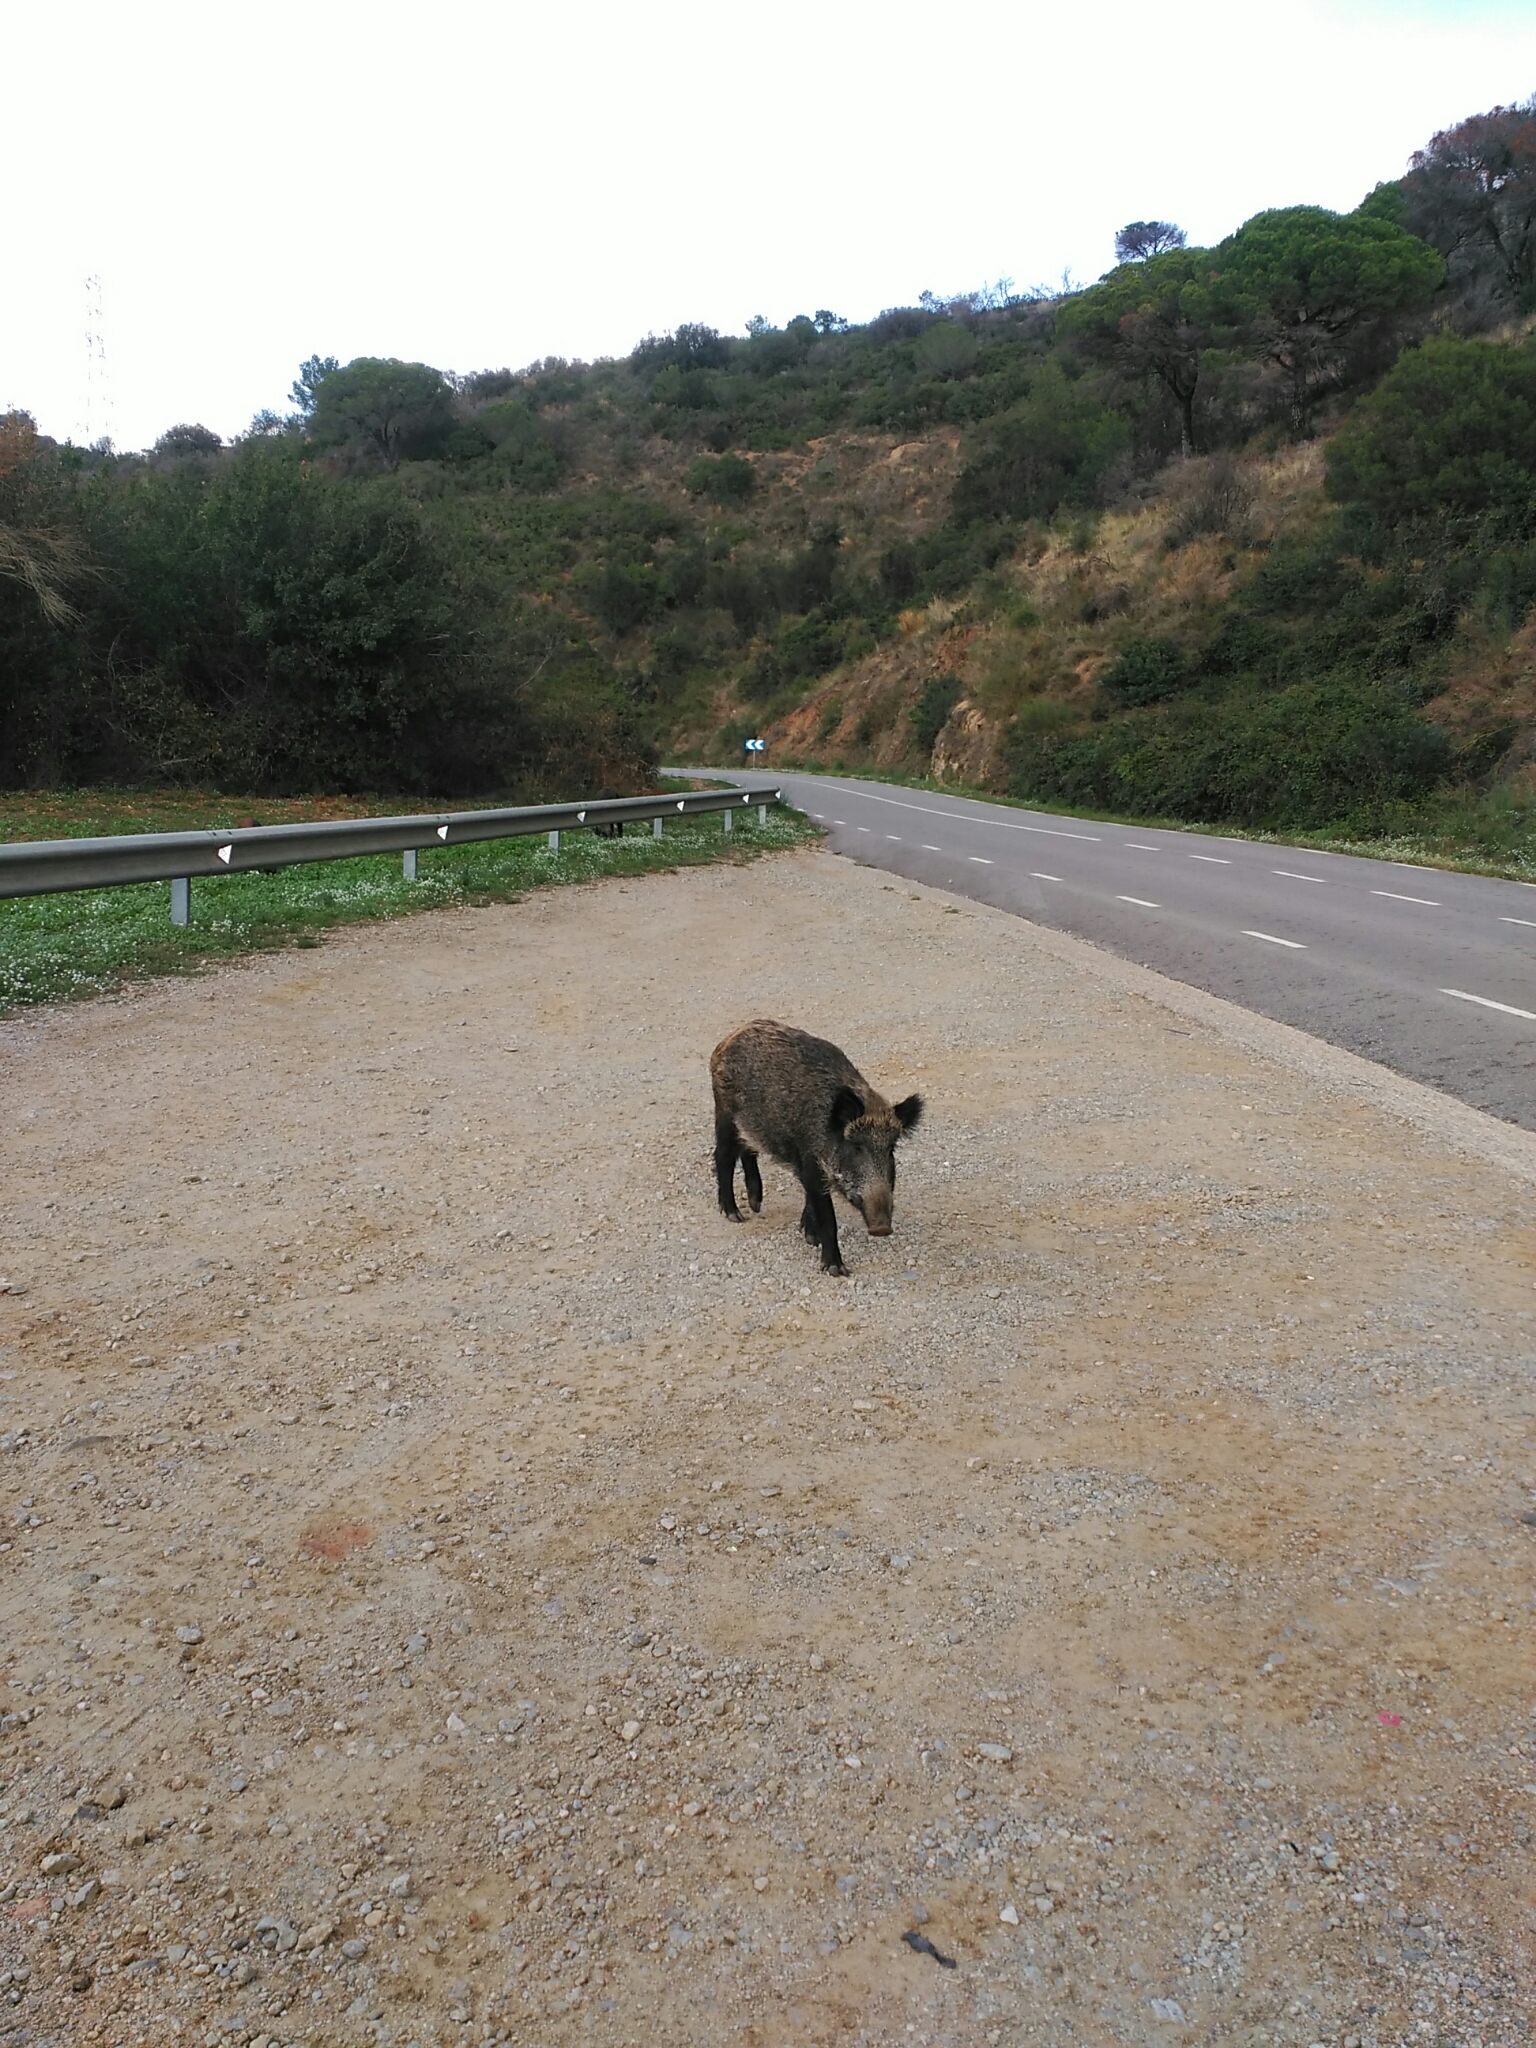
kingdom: Animalia
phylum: Chordata
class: Mammalia
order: Artiodactyla
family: Suidae
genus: Sus
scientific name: Sus scrofa
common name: Wild boar
